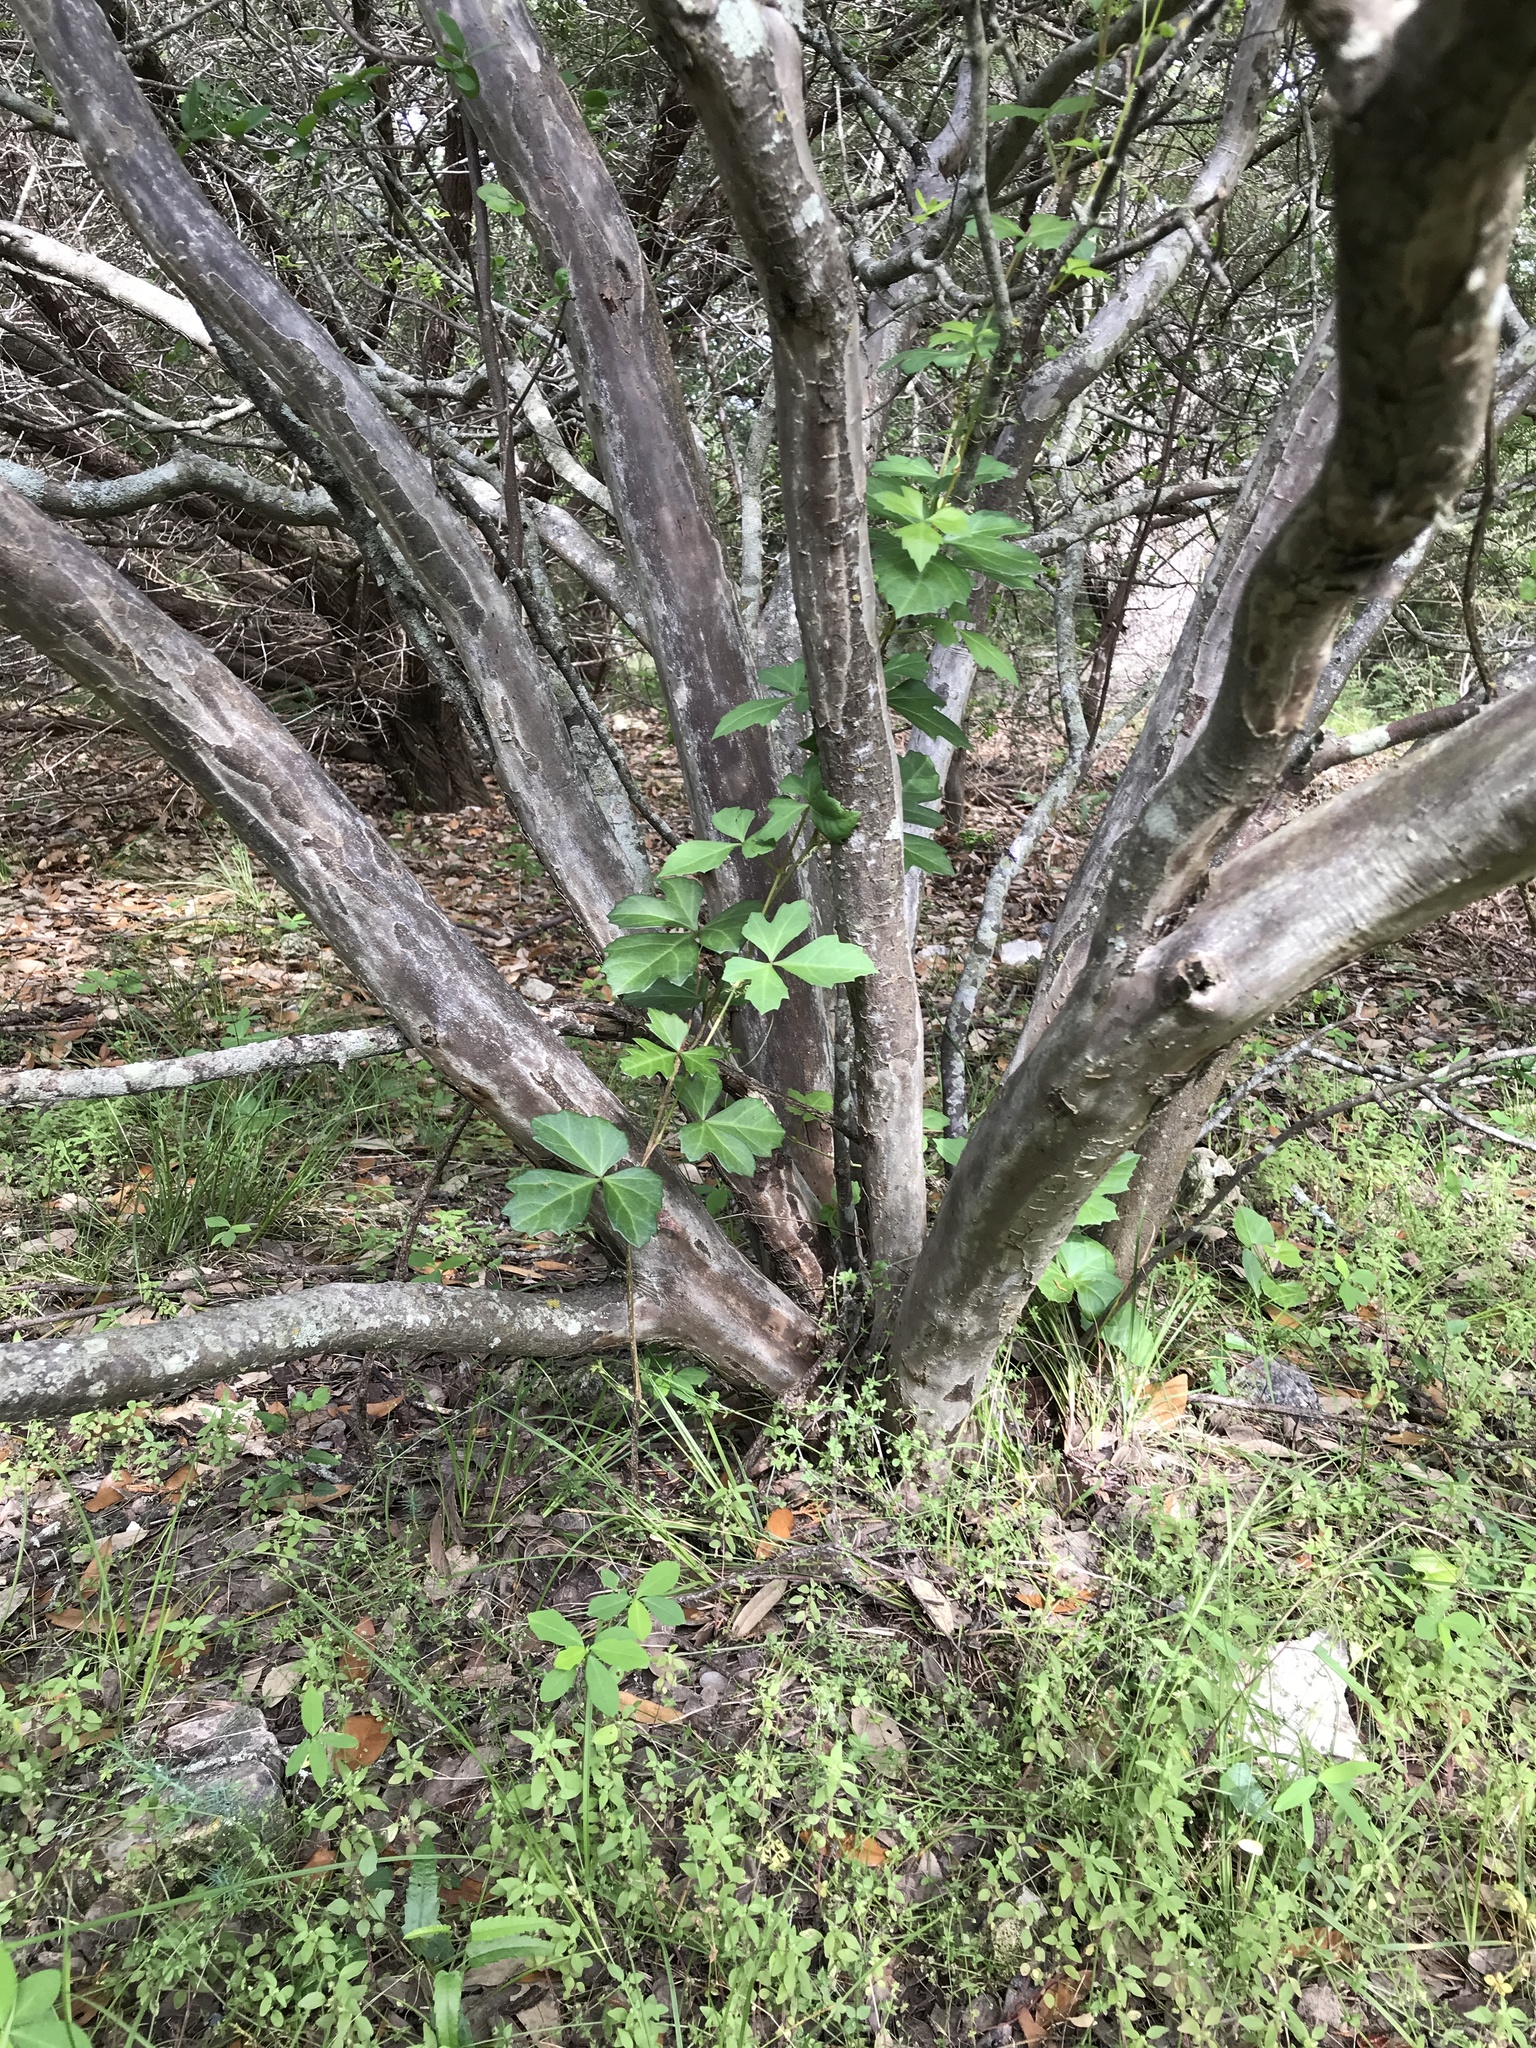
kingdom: Plantae
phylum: Tracheophyta
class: Magnoliopsida
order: Vitales
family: Vitaceae
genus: Cissus
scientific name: Cissus trifoliata
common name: Vine-sorrel
